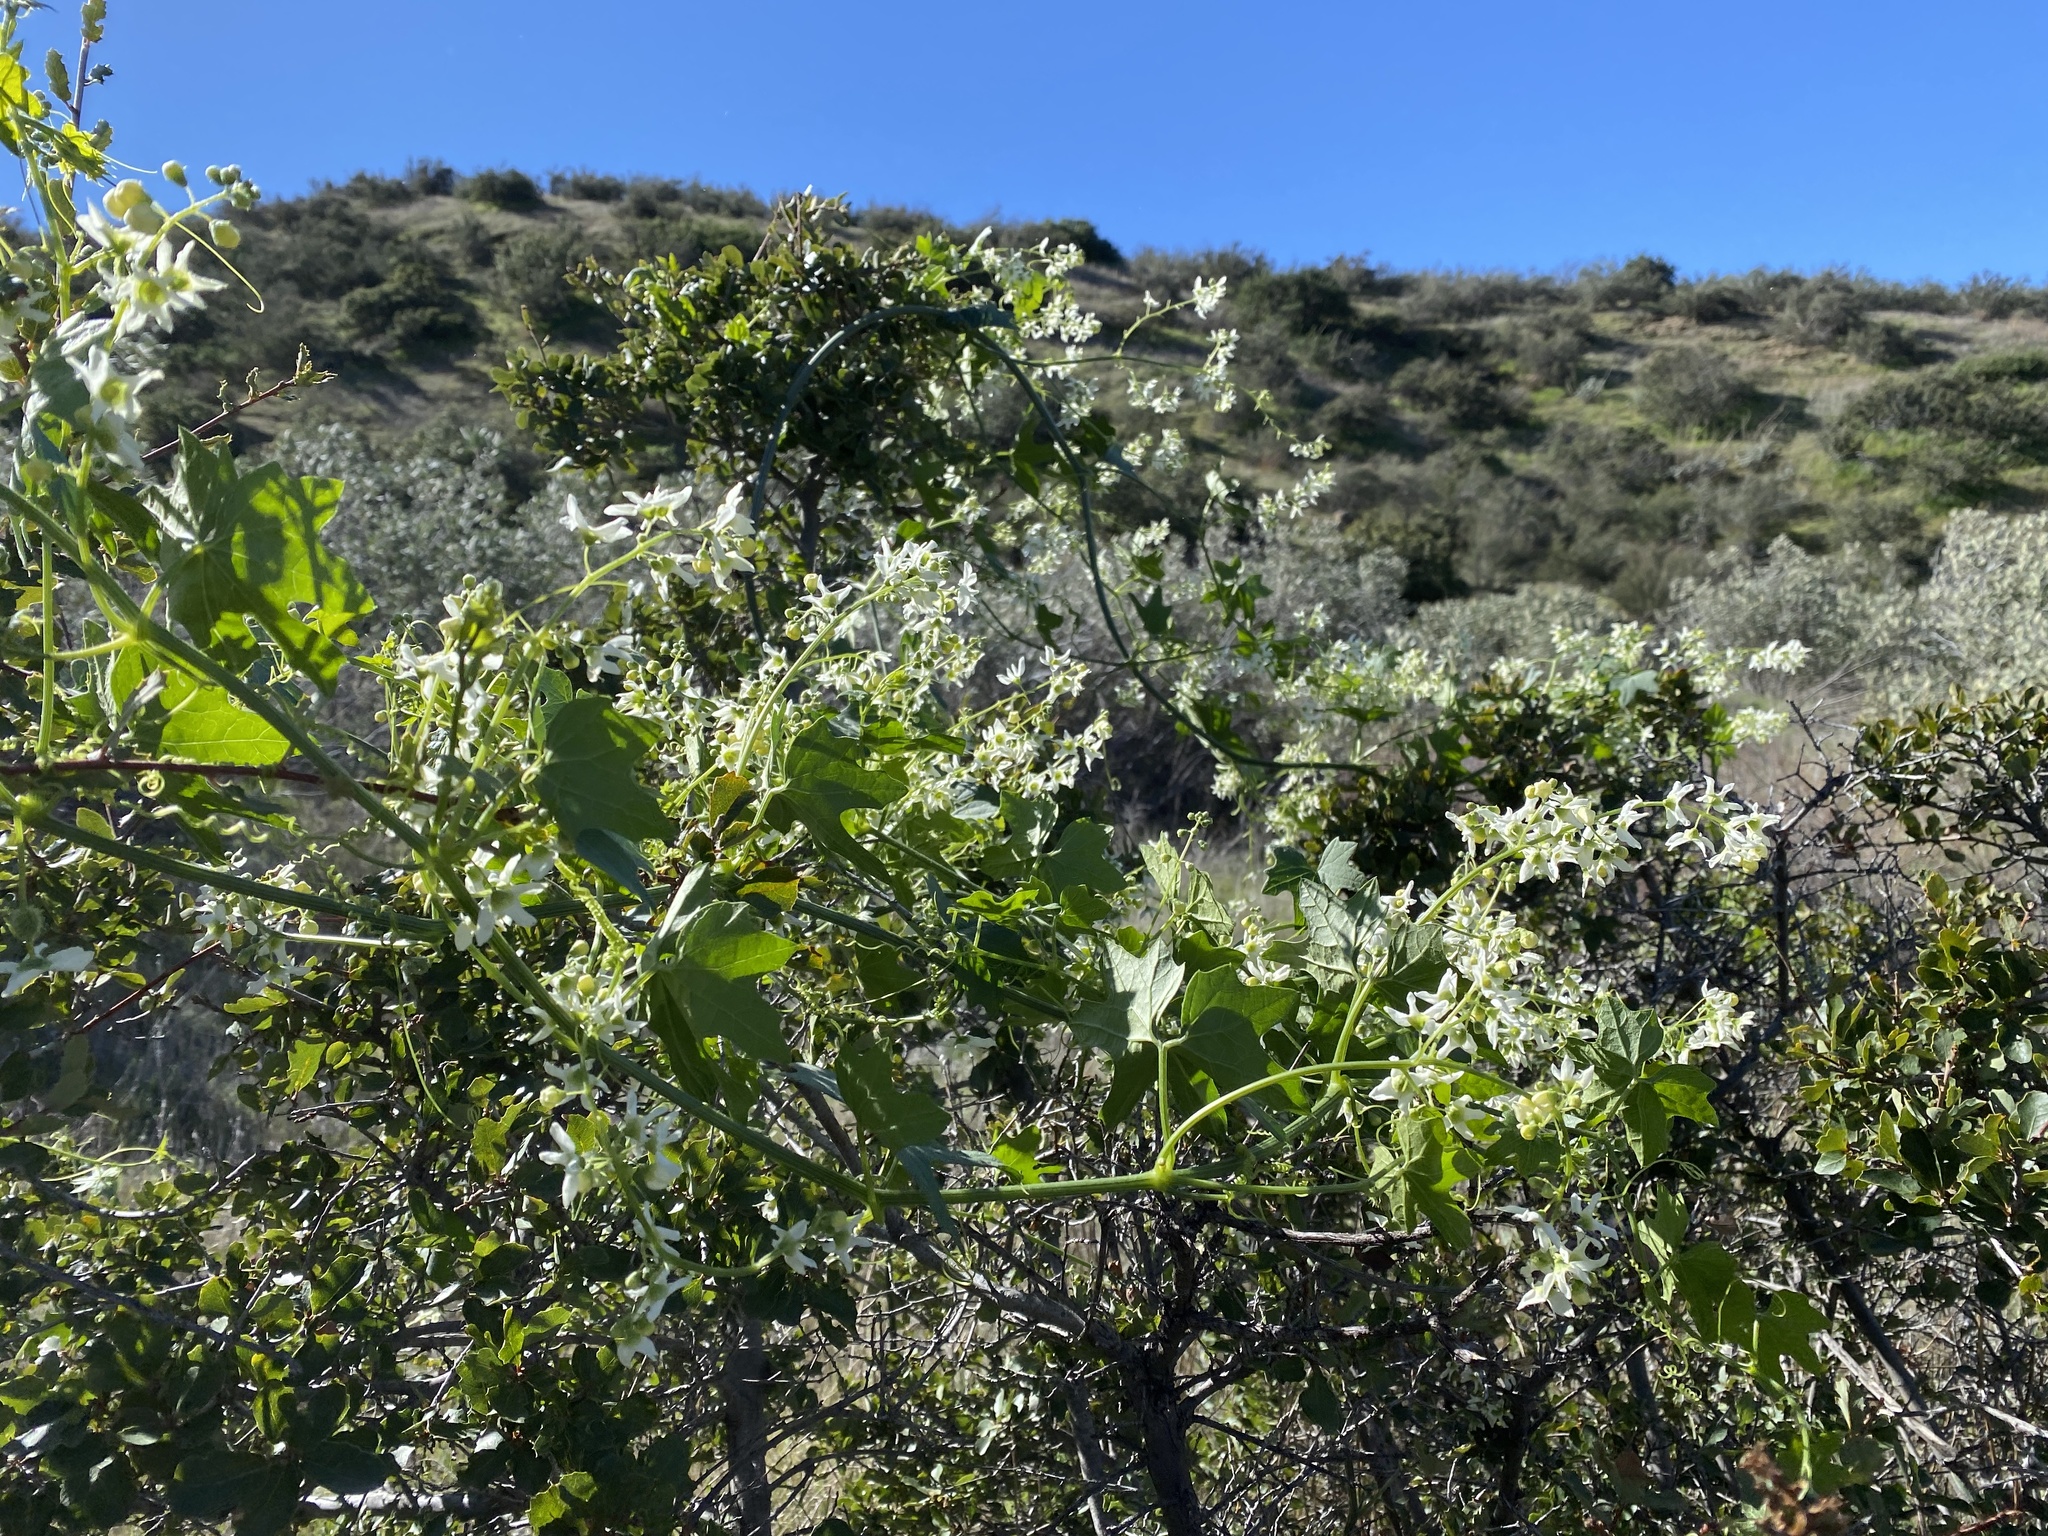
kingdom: Plantae
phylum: Tracheophyta
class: Magnoliopsida
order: Cucurbitales
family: Cucurbitaceae
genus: Marah
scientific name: Marah macrocarpa
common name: Cucamonga manroot
